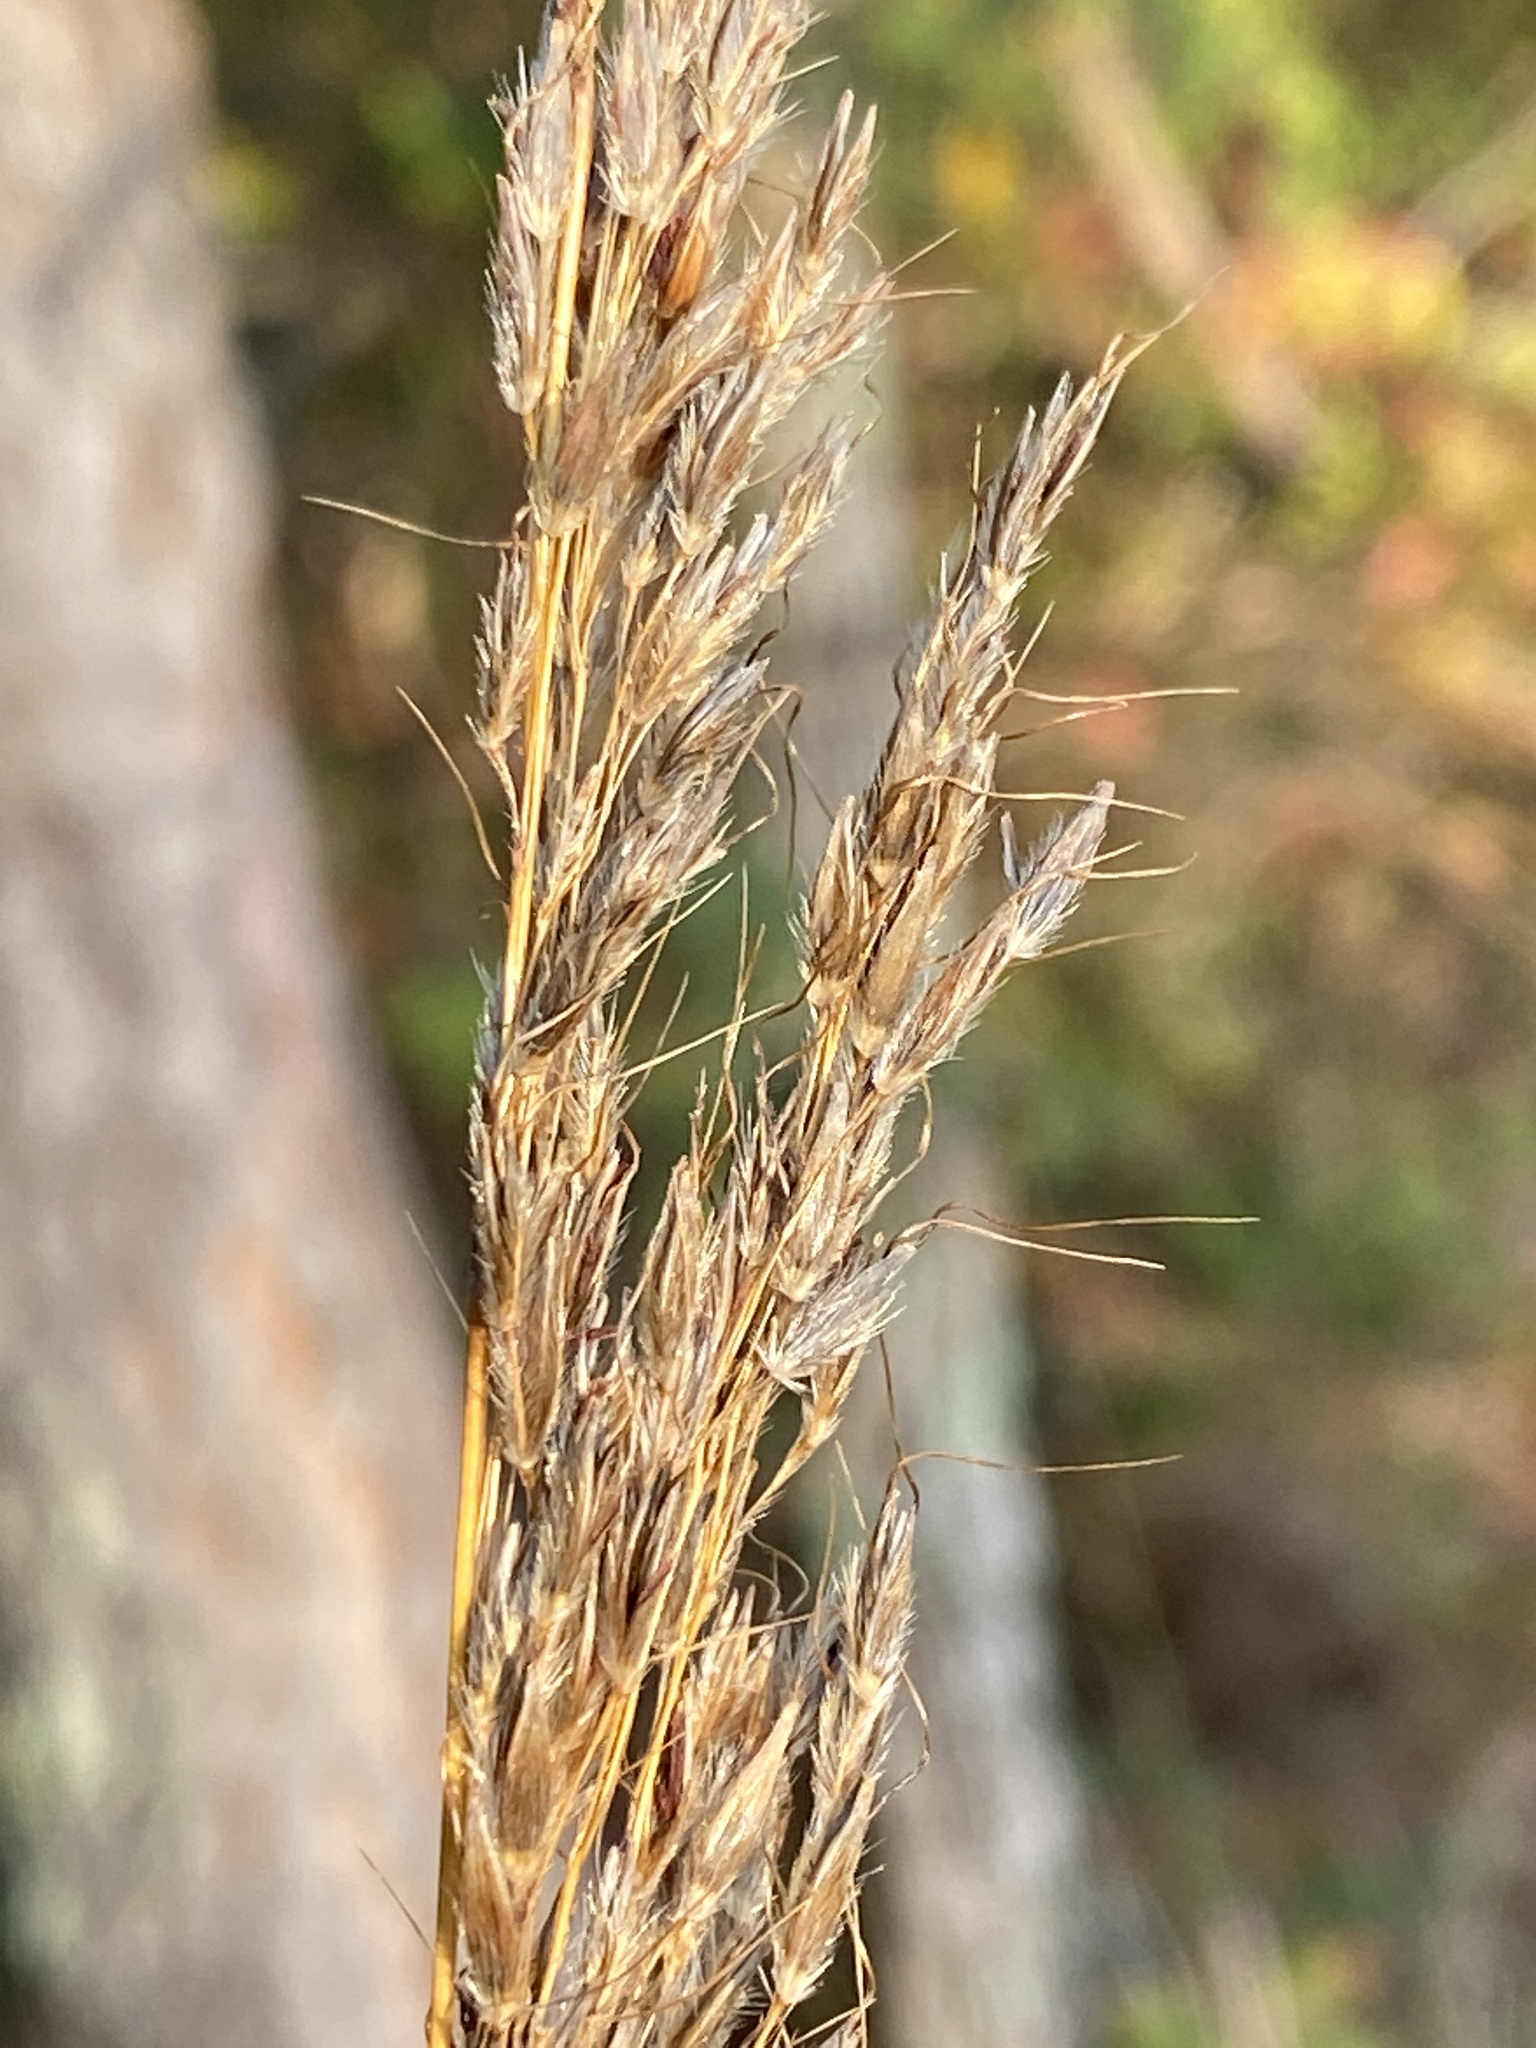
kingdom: Plantae
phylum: Tracheophyta
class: Liliopsida
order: Poales
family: Poaceae
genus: Sorghastrum
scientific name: Sorghastrum nutans
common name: Indian grass
